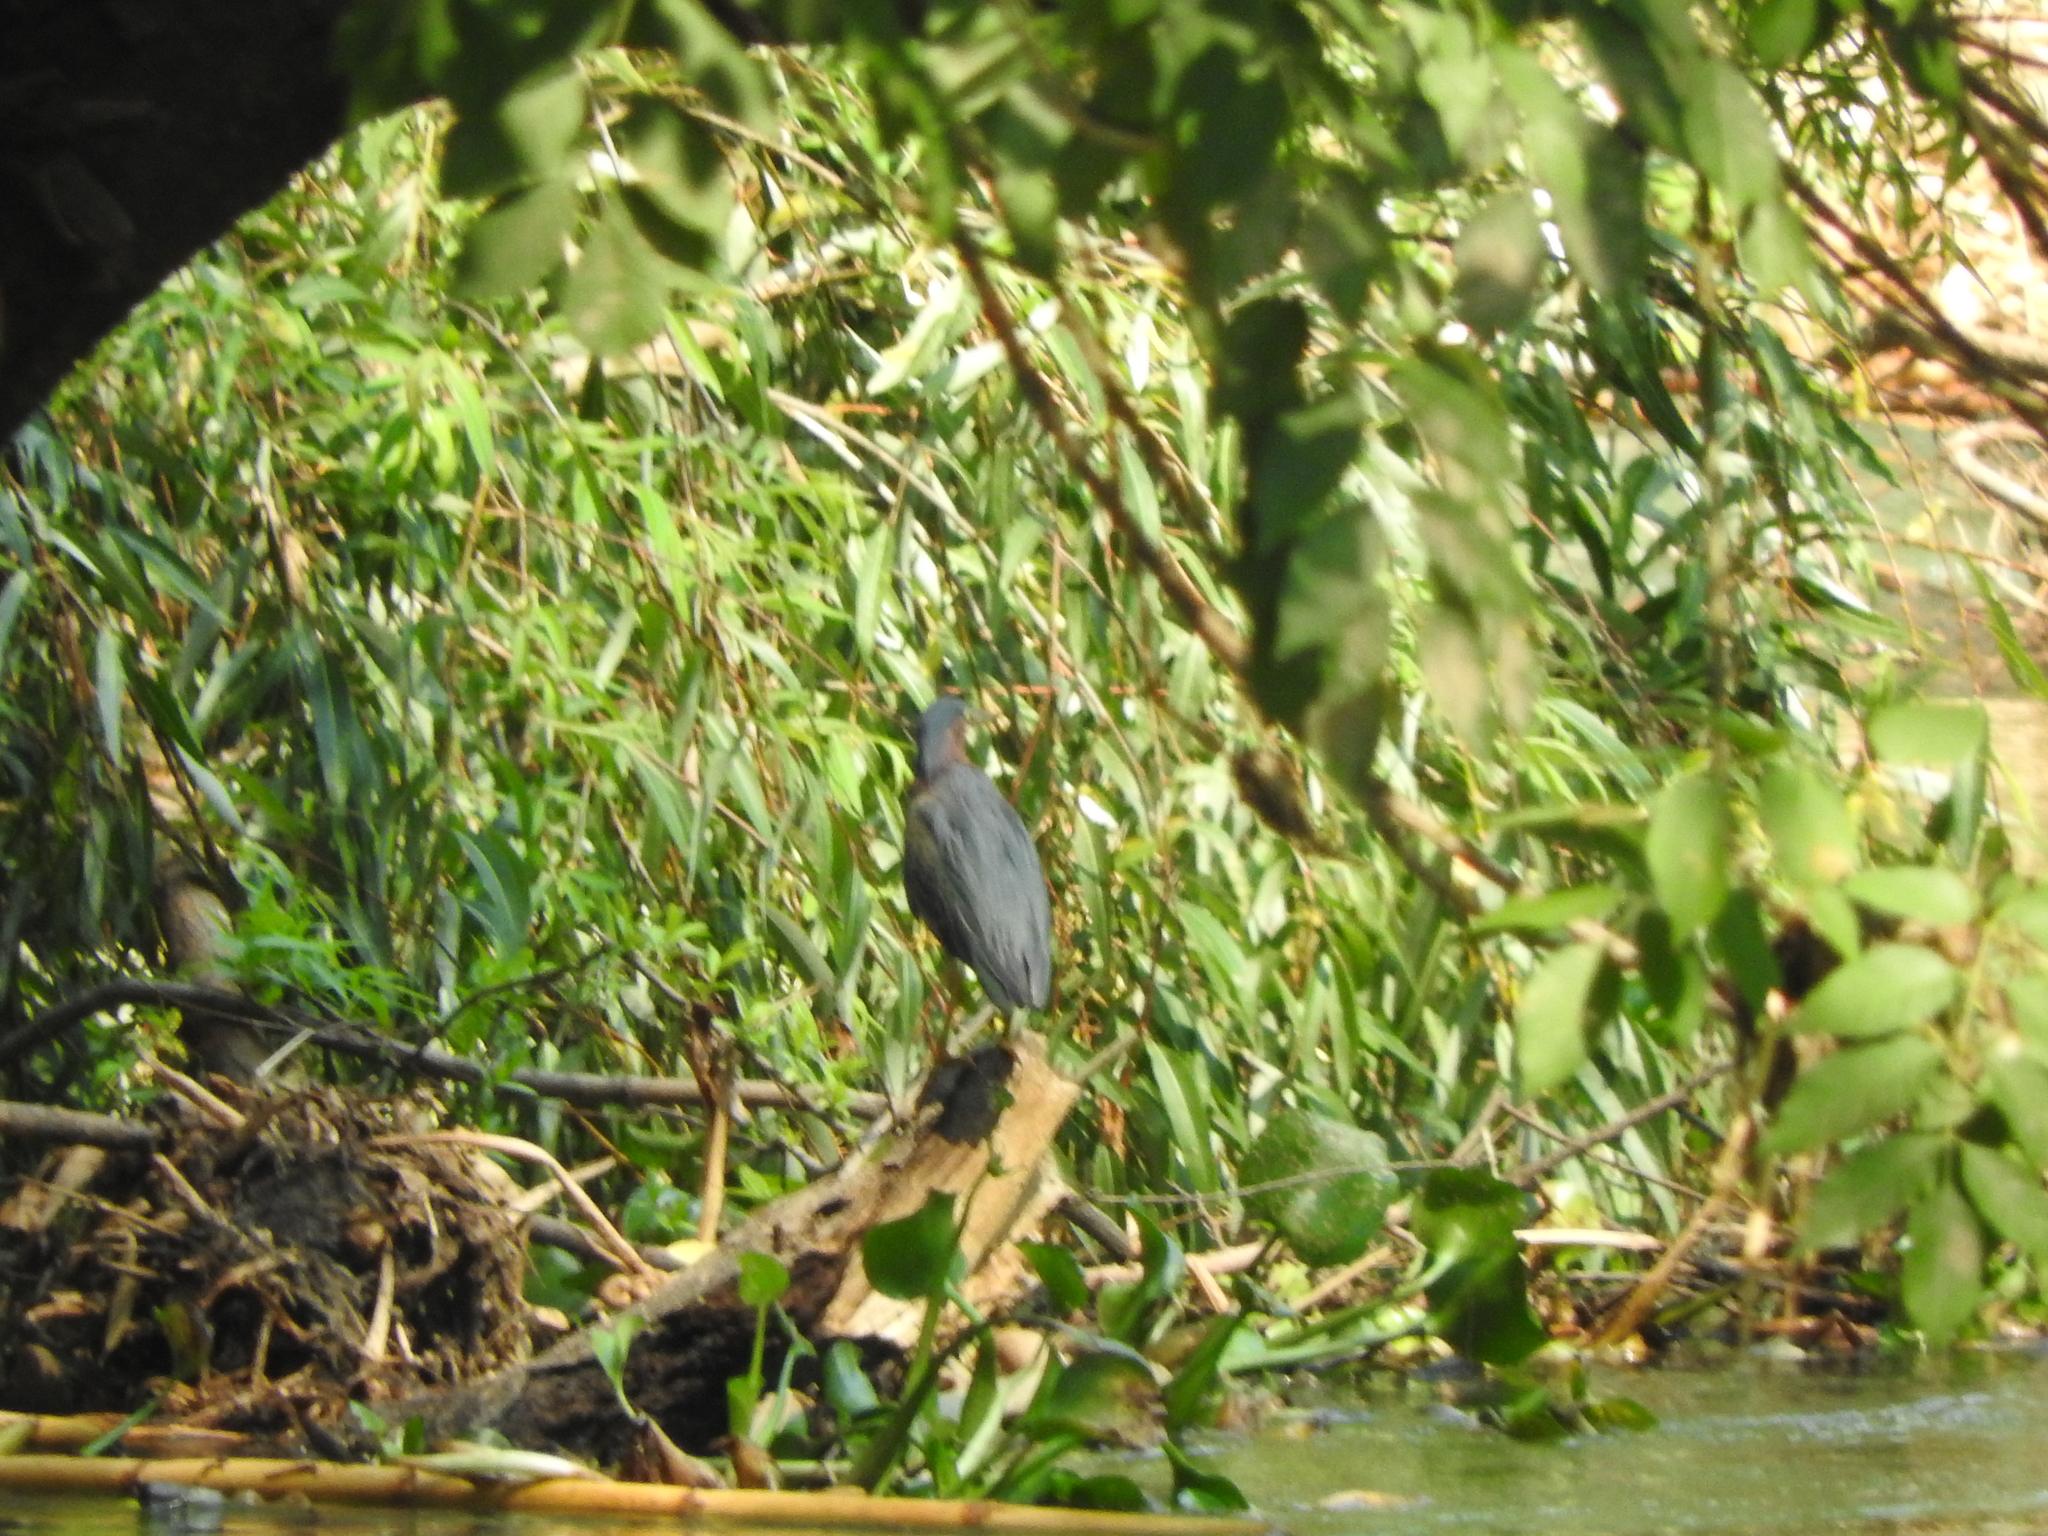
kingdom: Animalia
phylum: Chordata
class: Aves
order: Pelecaniformes
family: Ardeidae
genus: Butorides
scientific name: Butorides virescens
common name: Green heron
